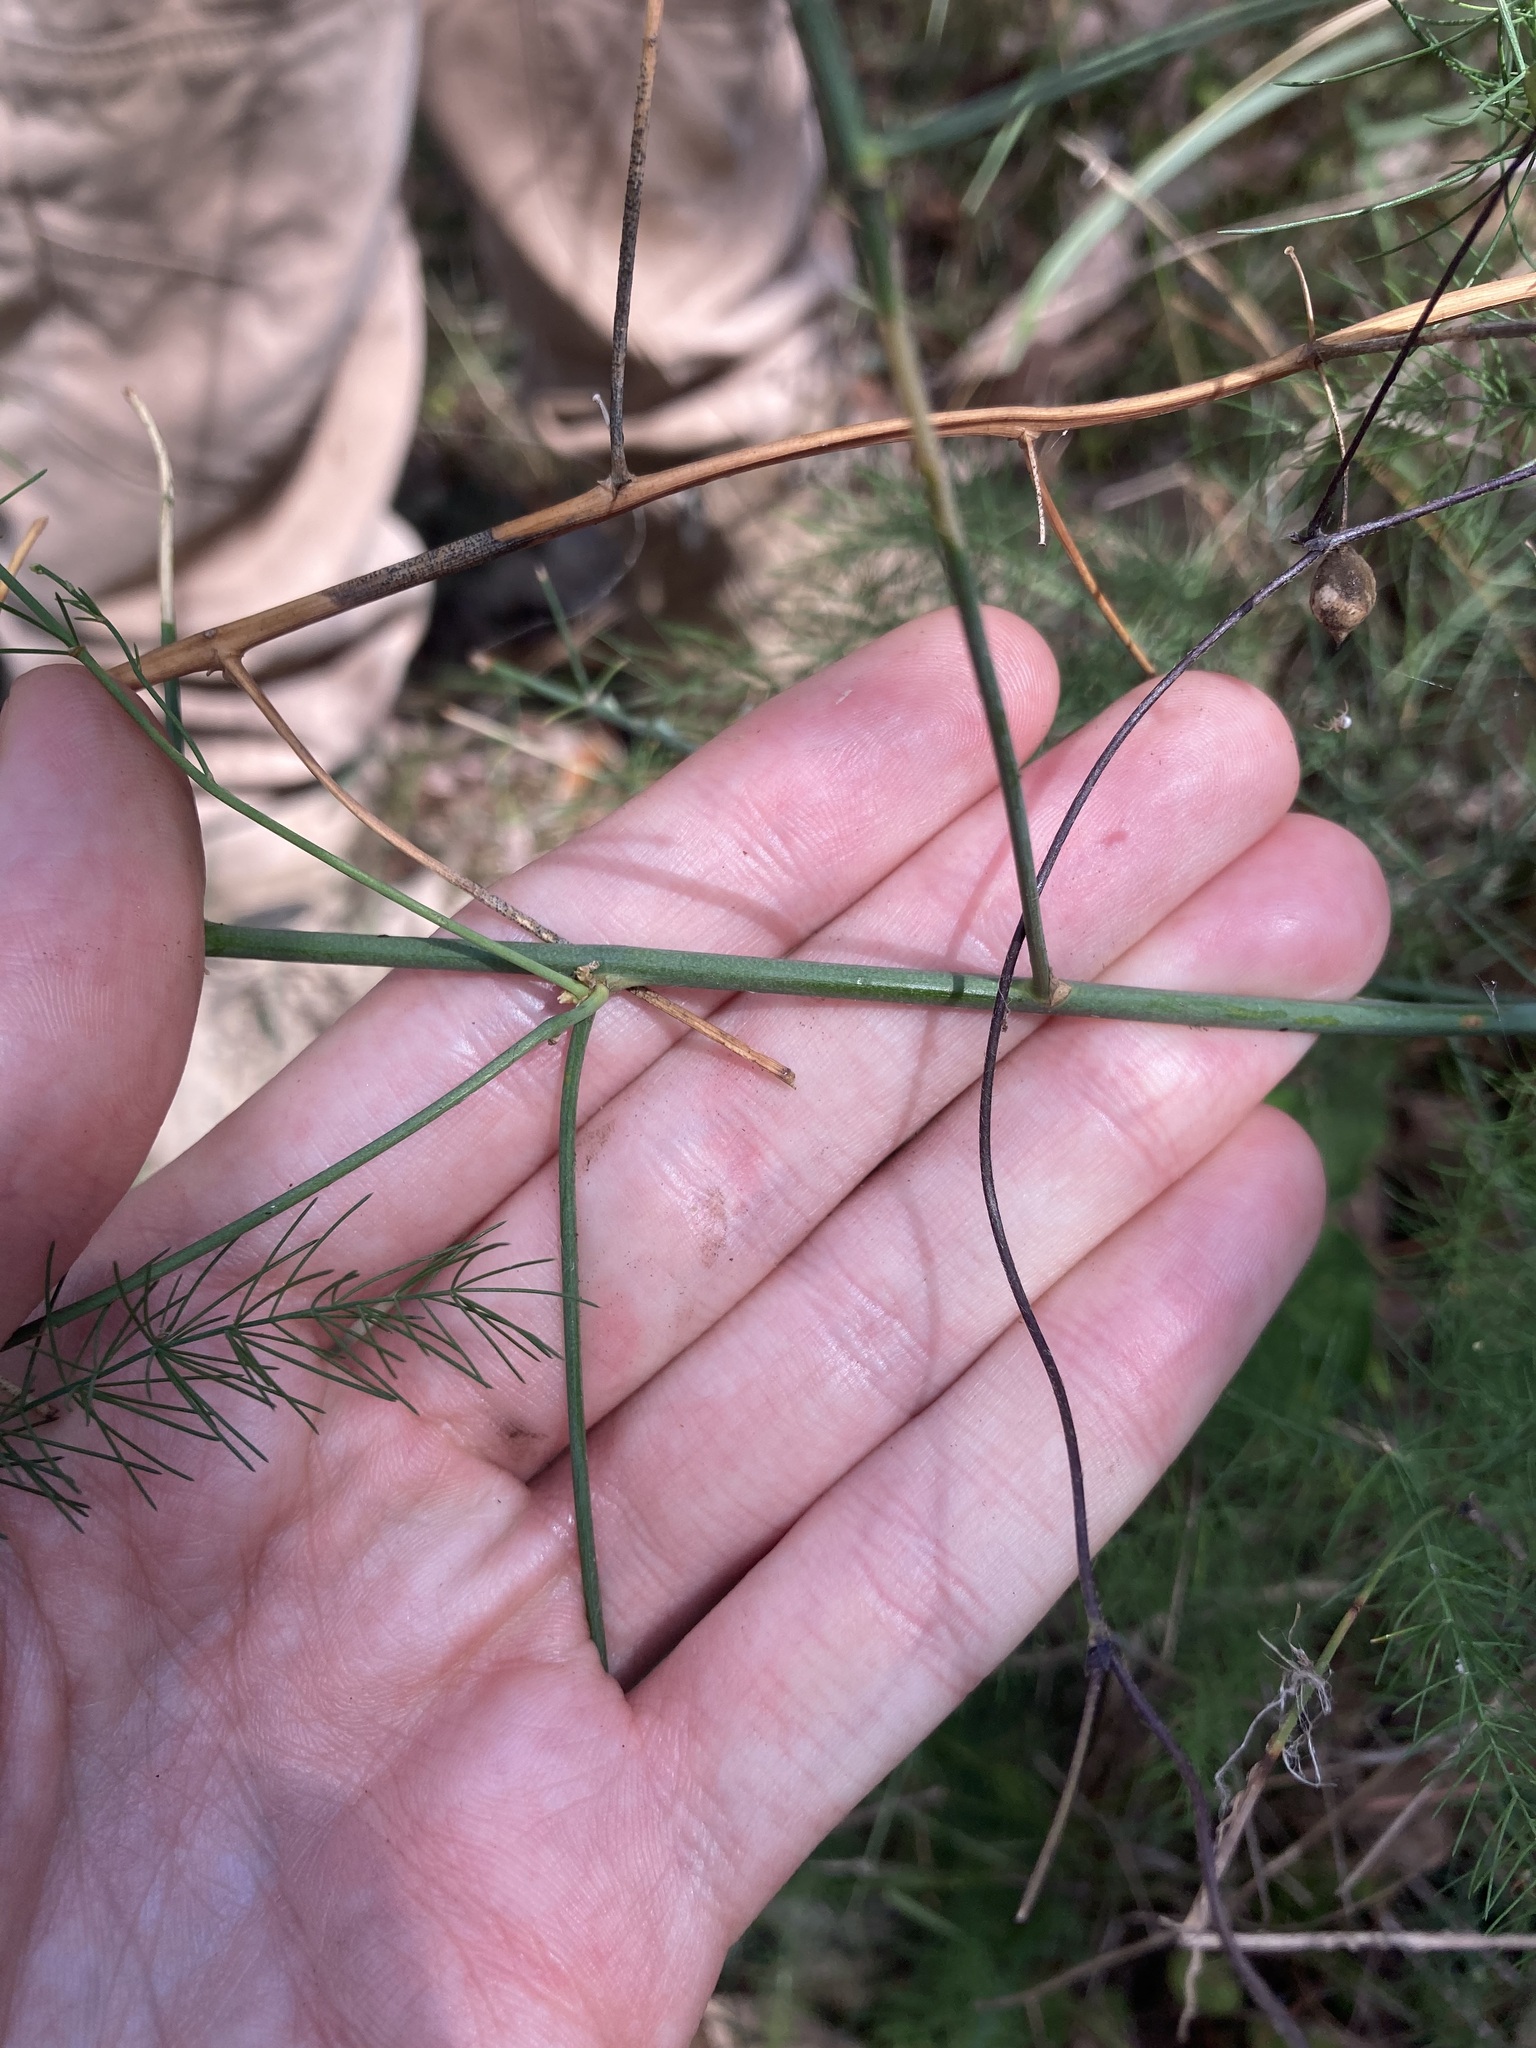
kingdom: Plantae
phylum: Tracheophyta
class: Liliopsida
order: Asparagales
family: Asparagaceae
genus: Asparagus
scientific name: Asparagus officinalis
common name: Garden asparagus
